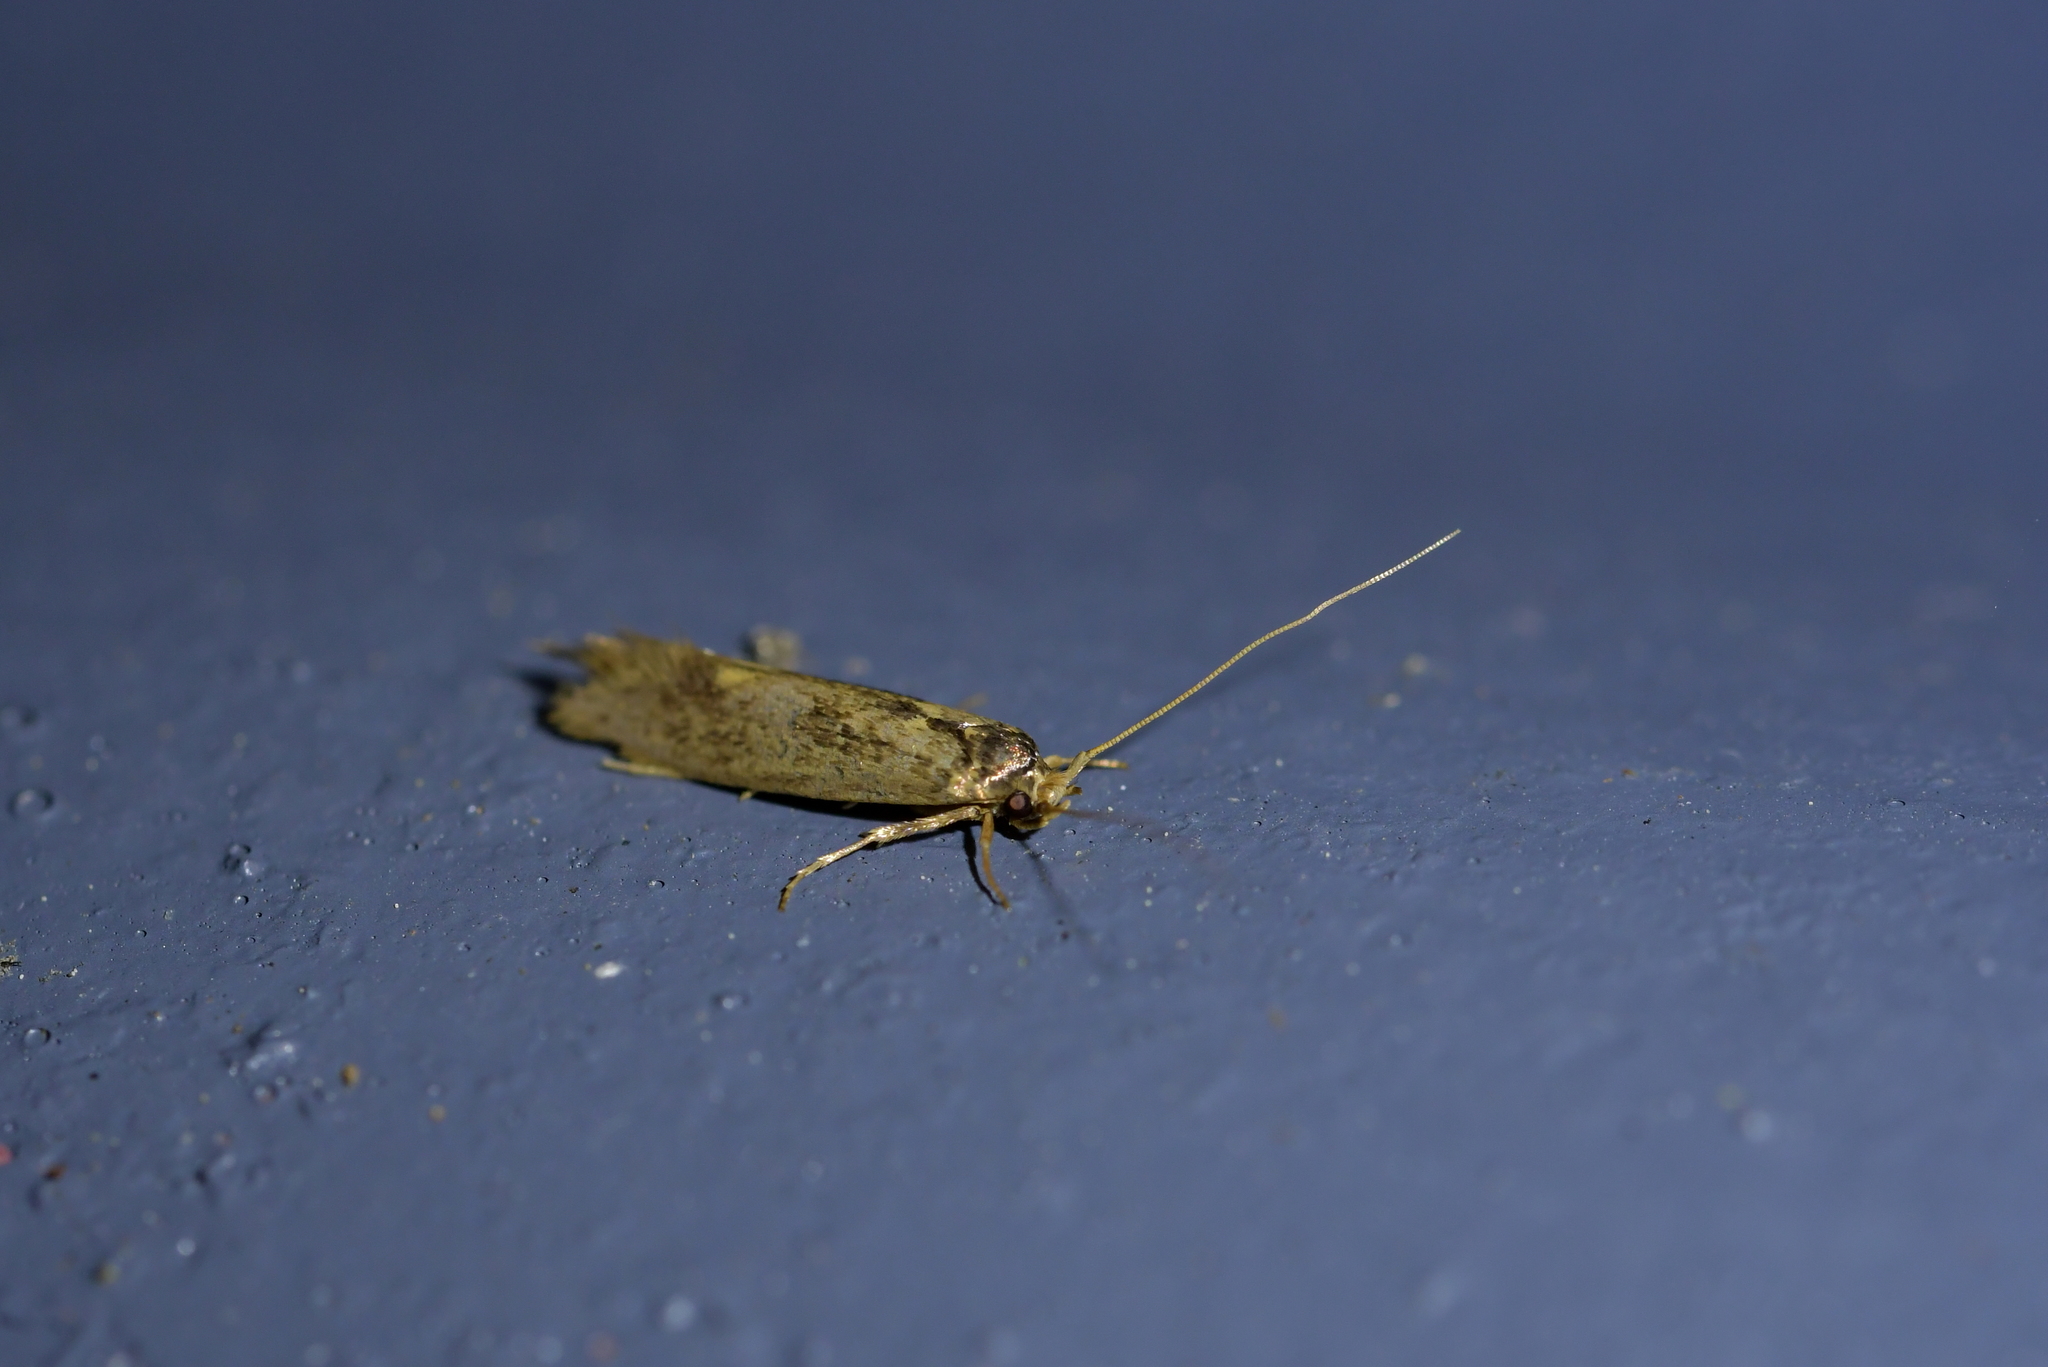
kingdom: Animalia
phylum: Arthropoda
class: Insecta
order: Lepidoptera
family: Tineidae
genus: Opogona
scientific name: Opogona omoscopa
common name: Moth
